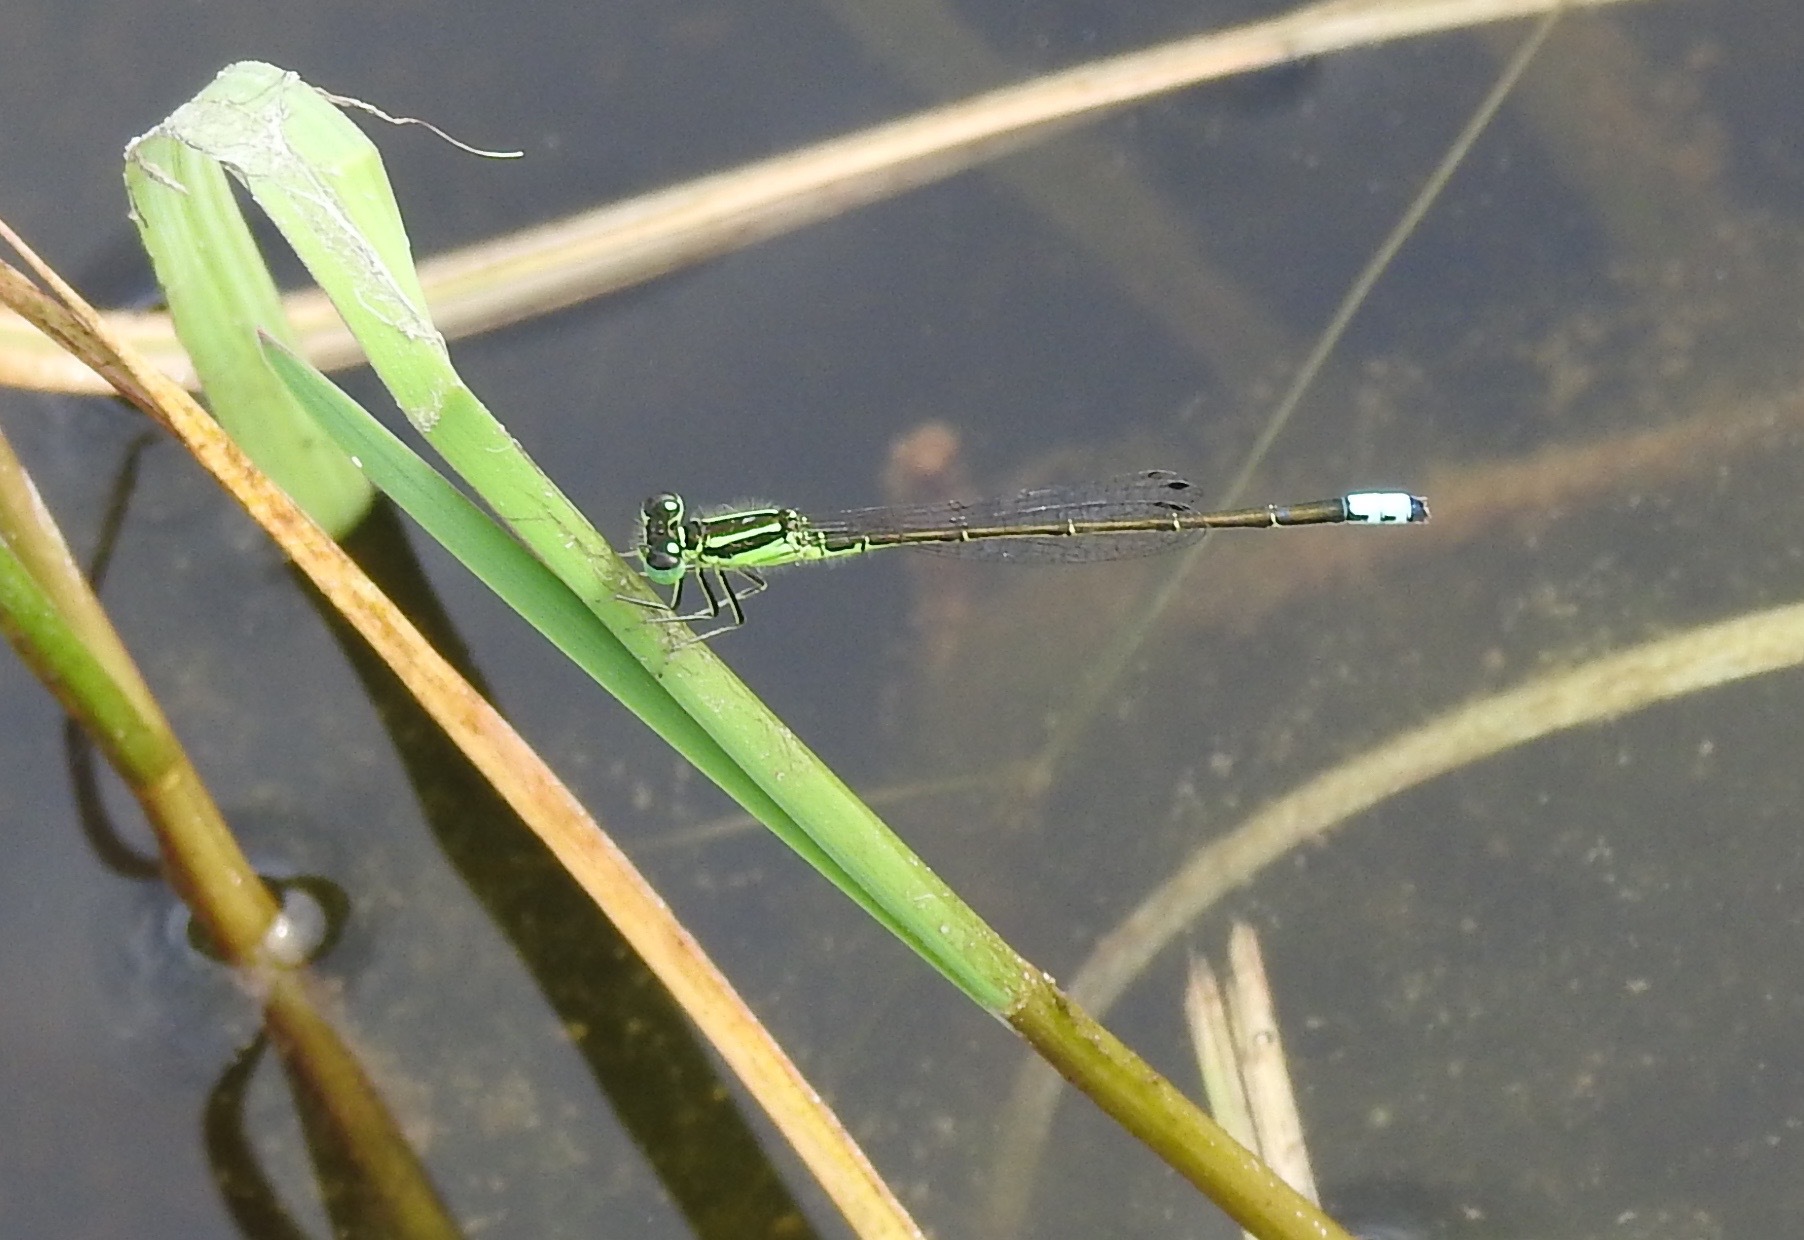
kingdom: Animalia
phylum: Arthropoda
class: Insecta
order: Odonata
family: Coenagrionidae
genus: Ischnura
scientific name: Ischnura verticalis
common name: Eastern forktail
